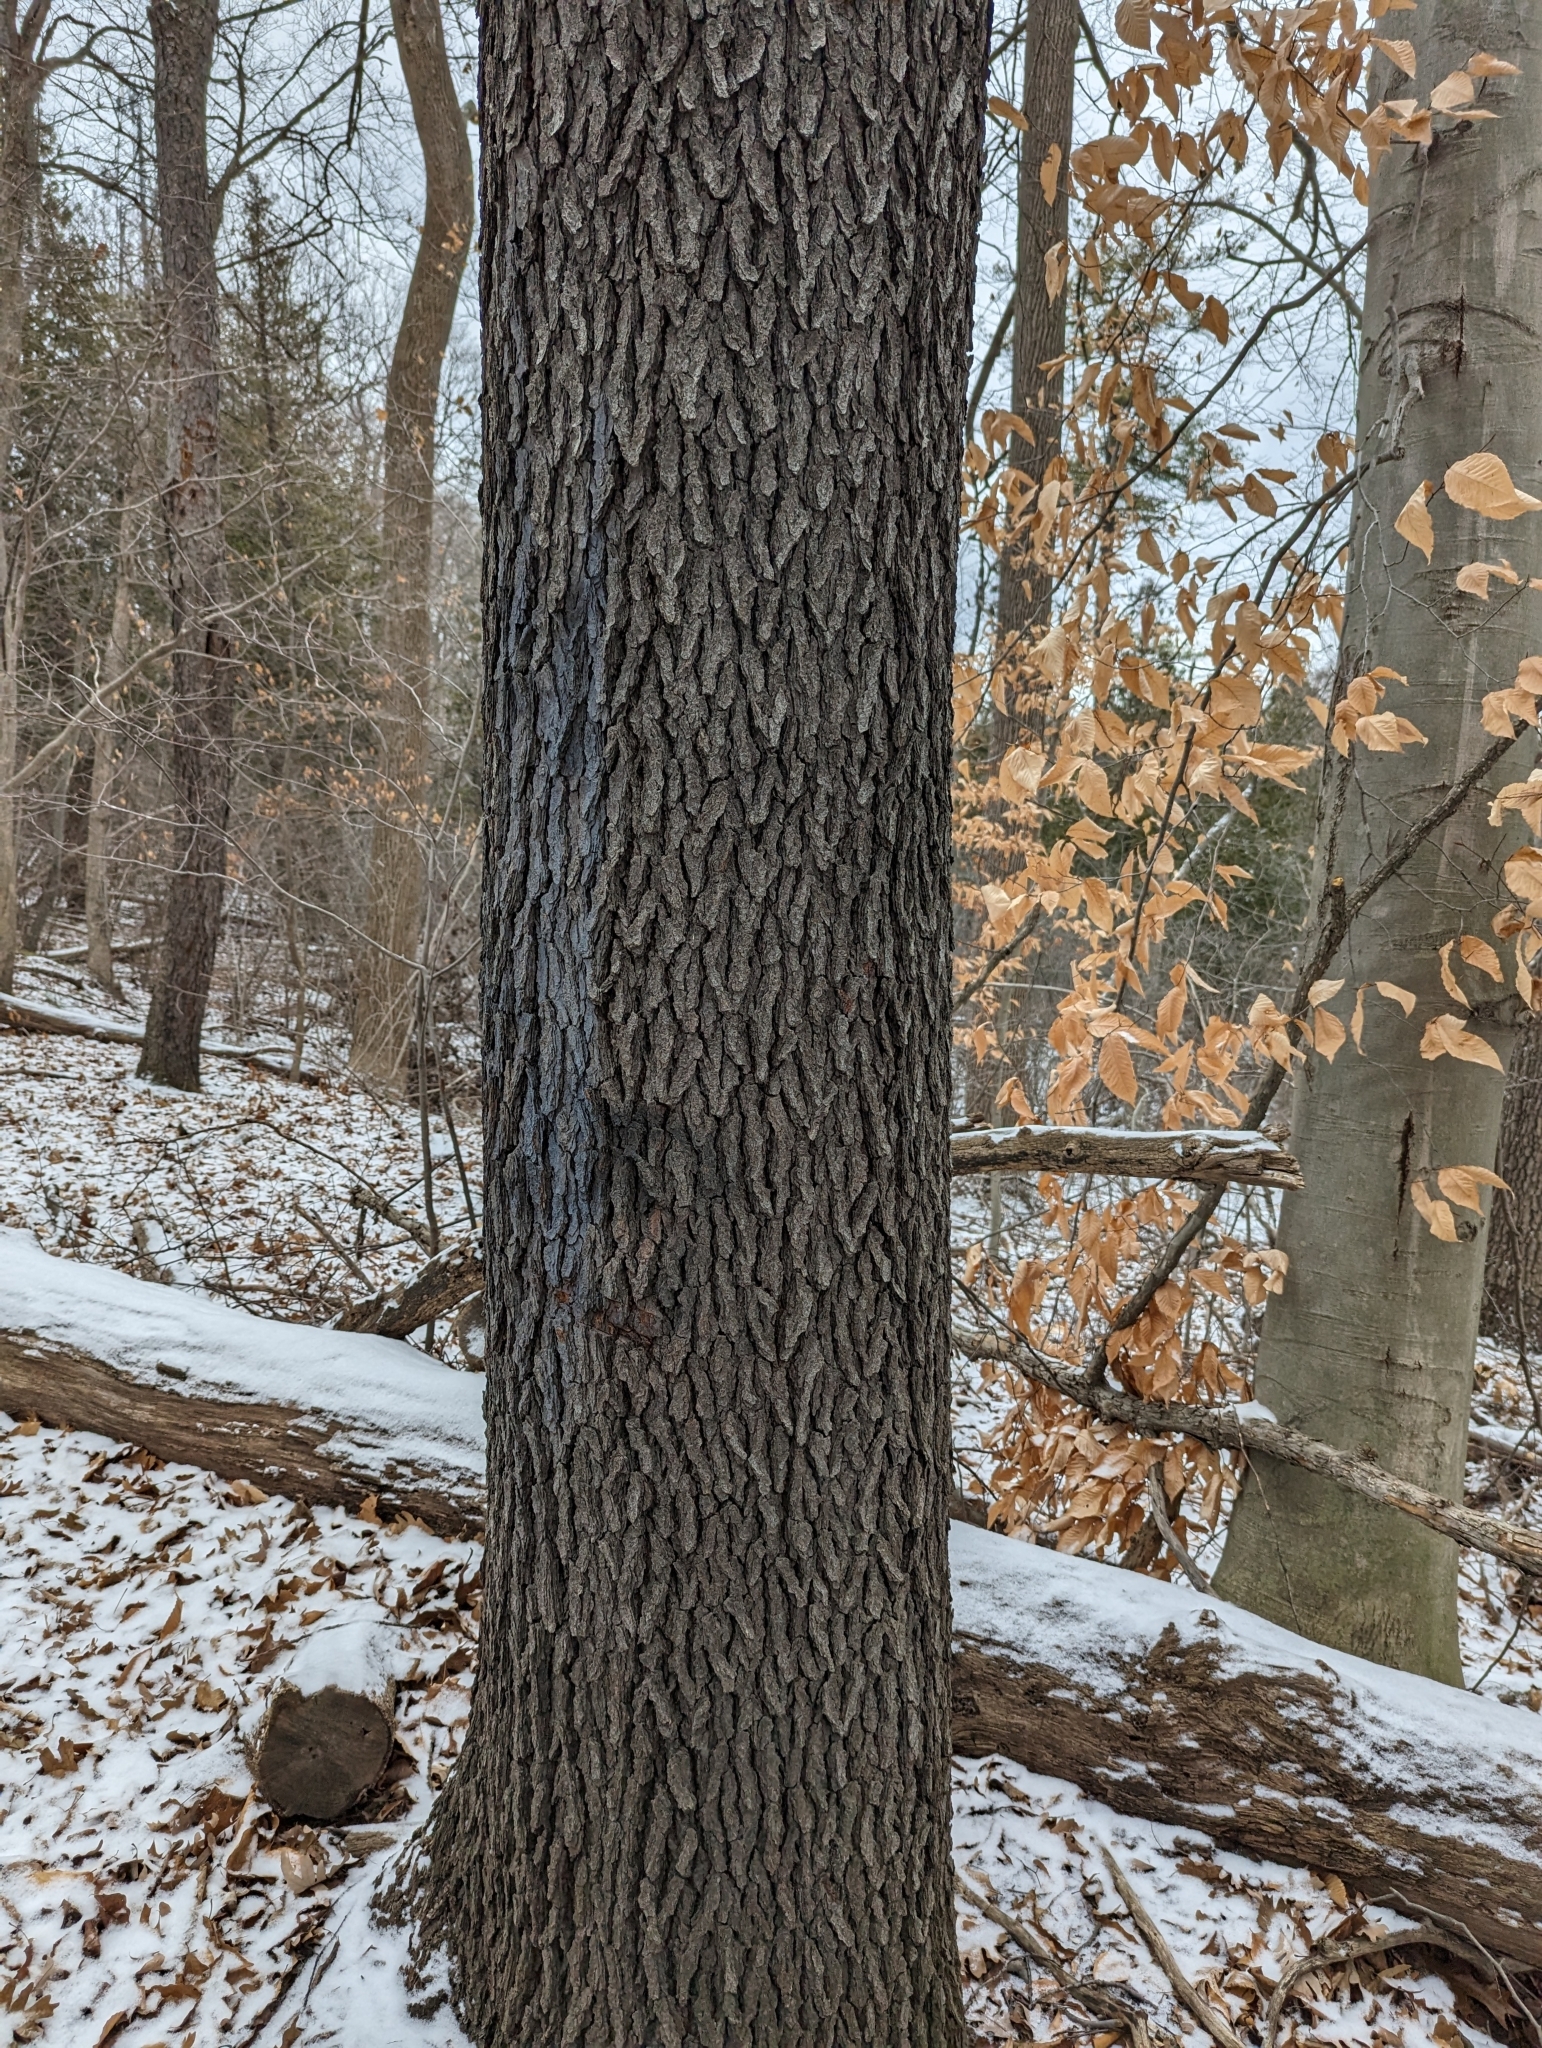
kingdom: Plantae
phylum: Tracheophyta
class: Magnoliopsida
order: Rosales
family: Rosaceae
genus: Prunus
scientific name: Prunus serotina
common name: Black cherry
